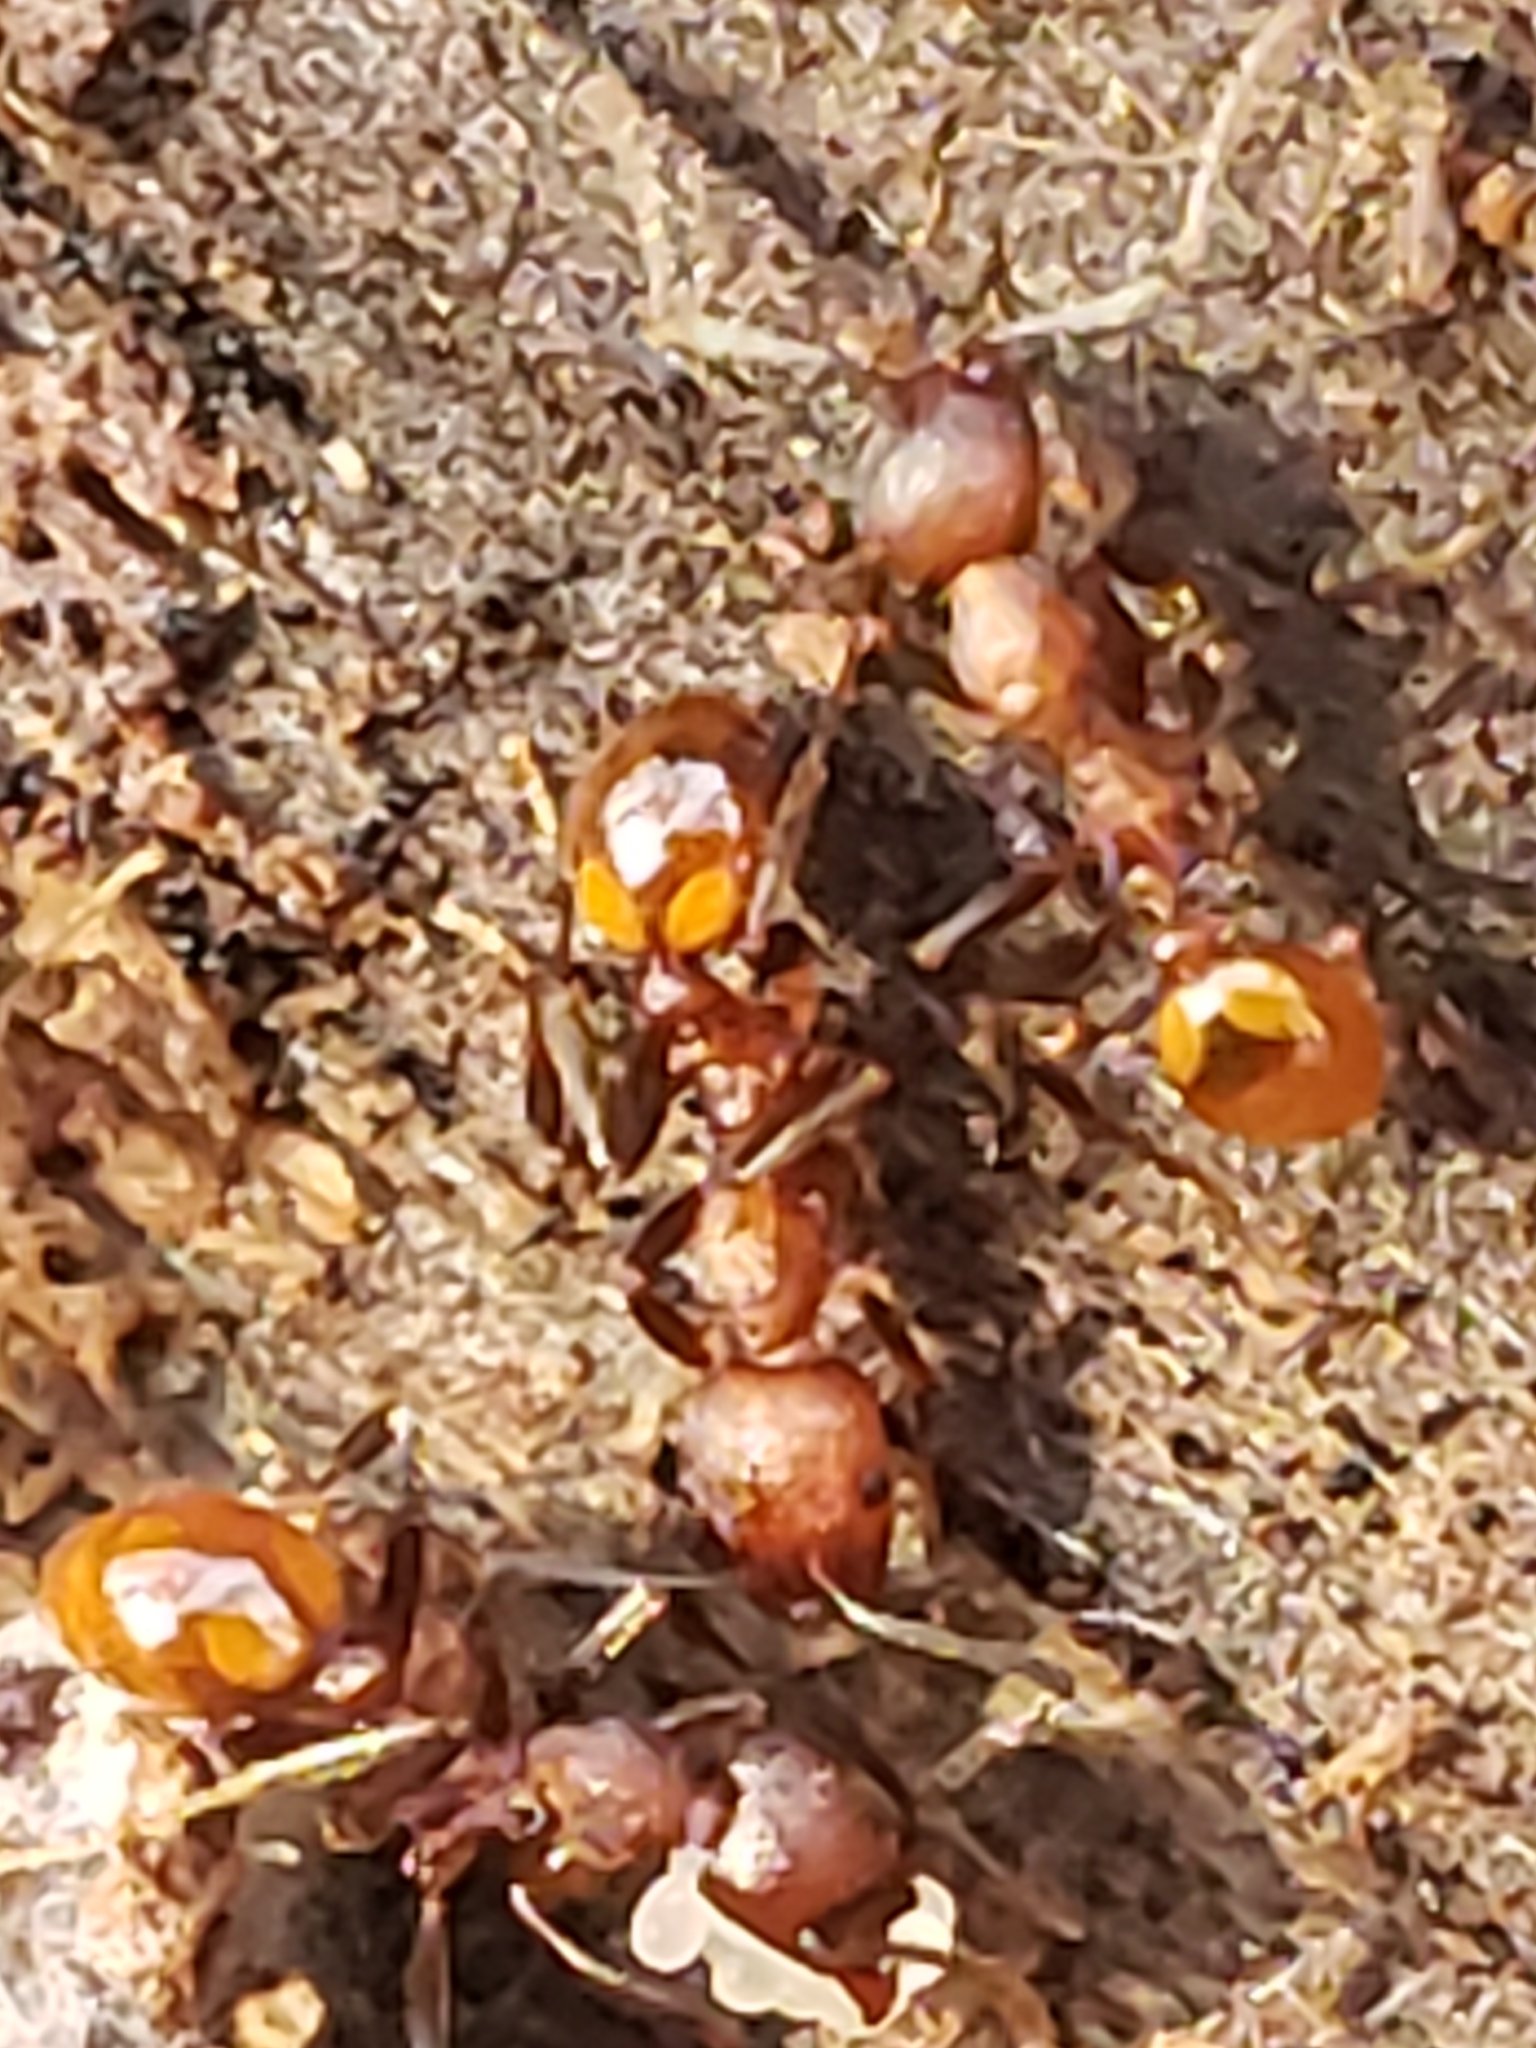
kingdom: Animalia
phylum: Arthropoda
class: Insecta
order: Hymenoptera
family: Formicidae
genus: Aphaenogaster
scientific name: Aphaenogaster tennesseensis
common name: Tennessee thread-waisted ant
